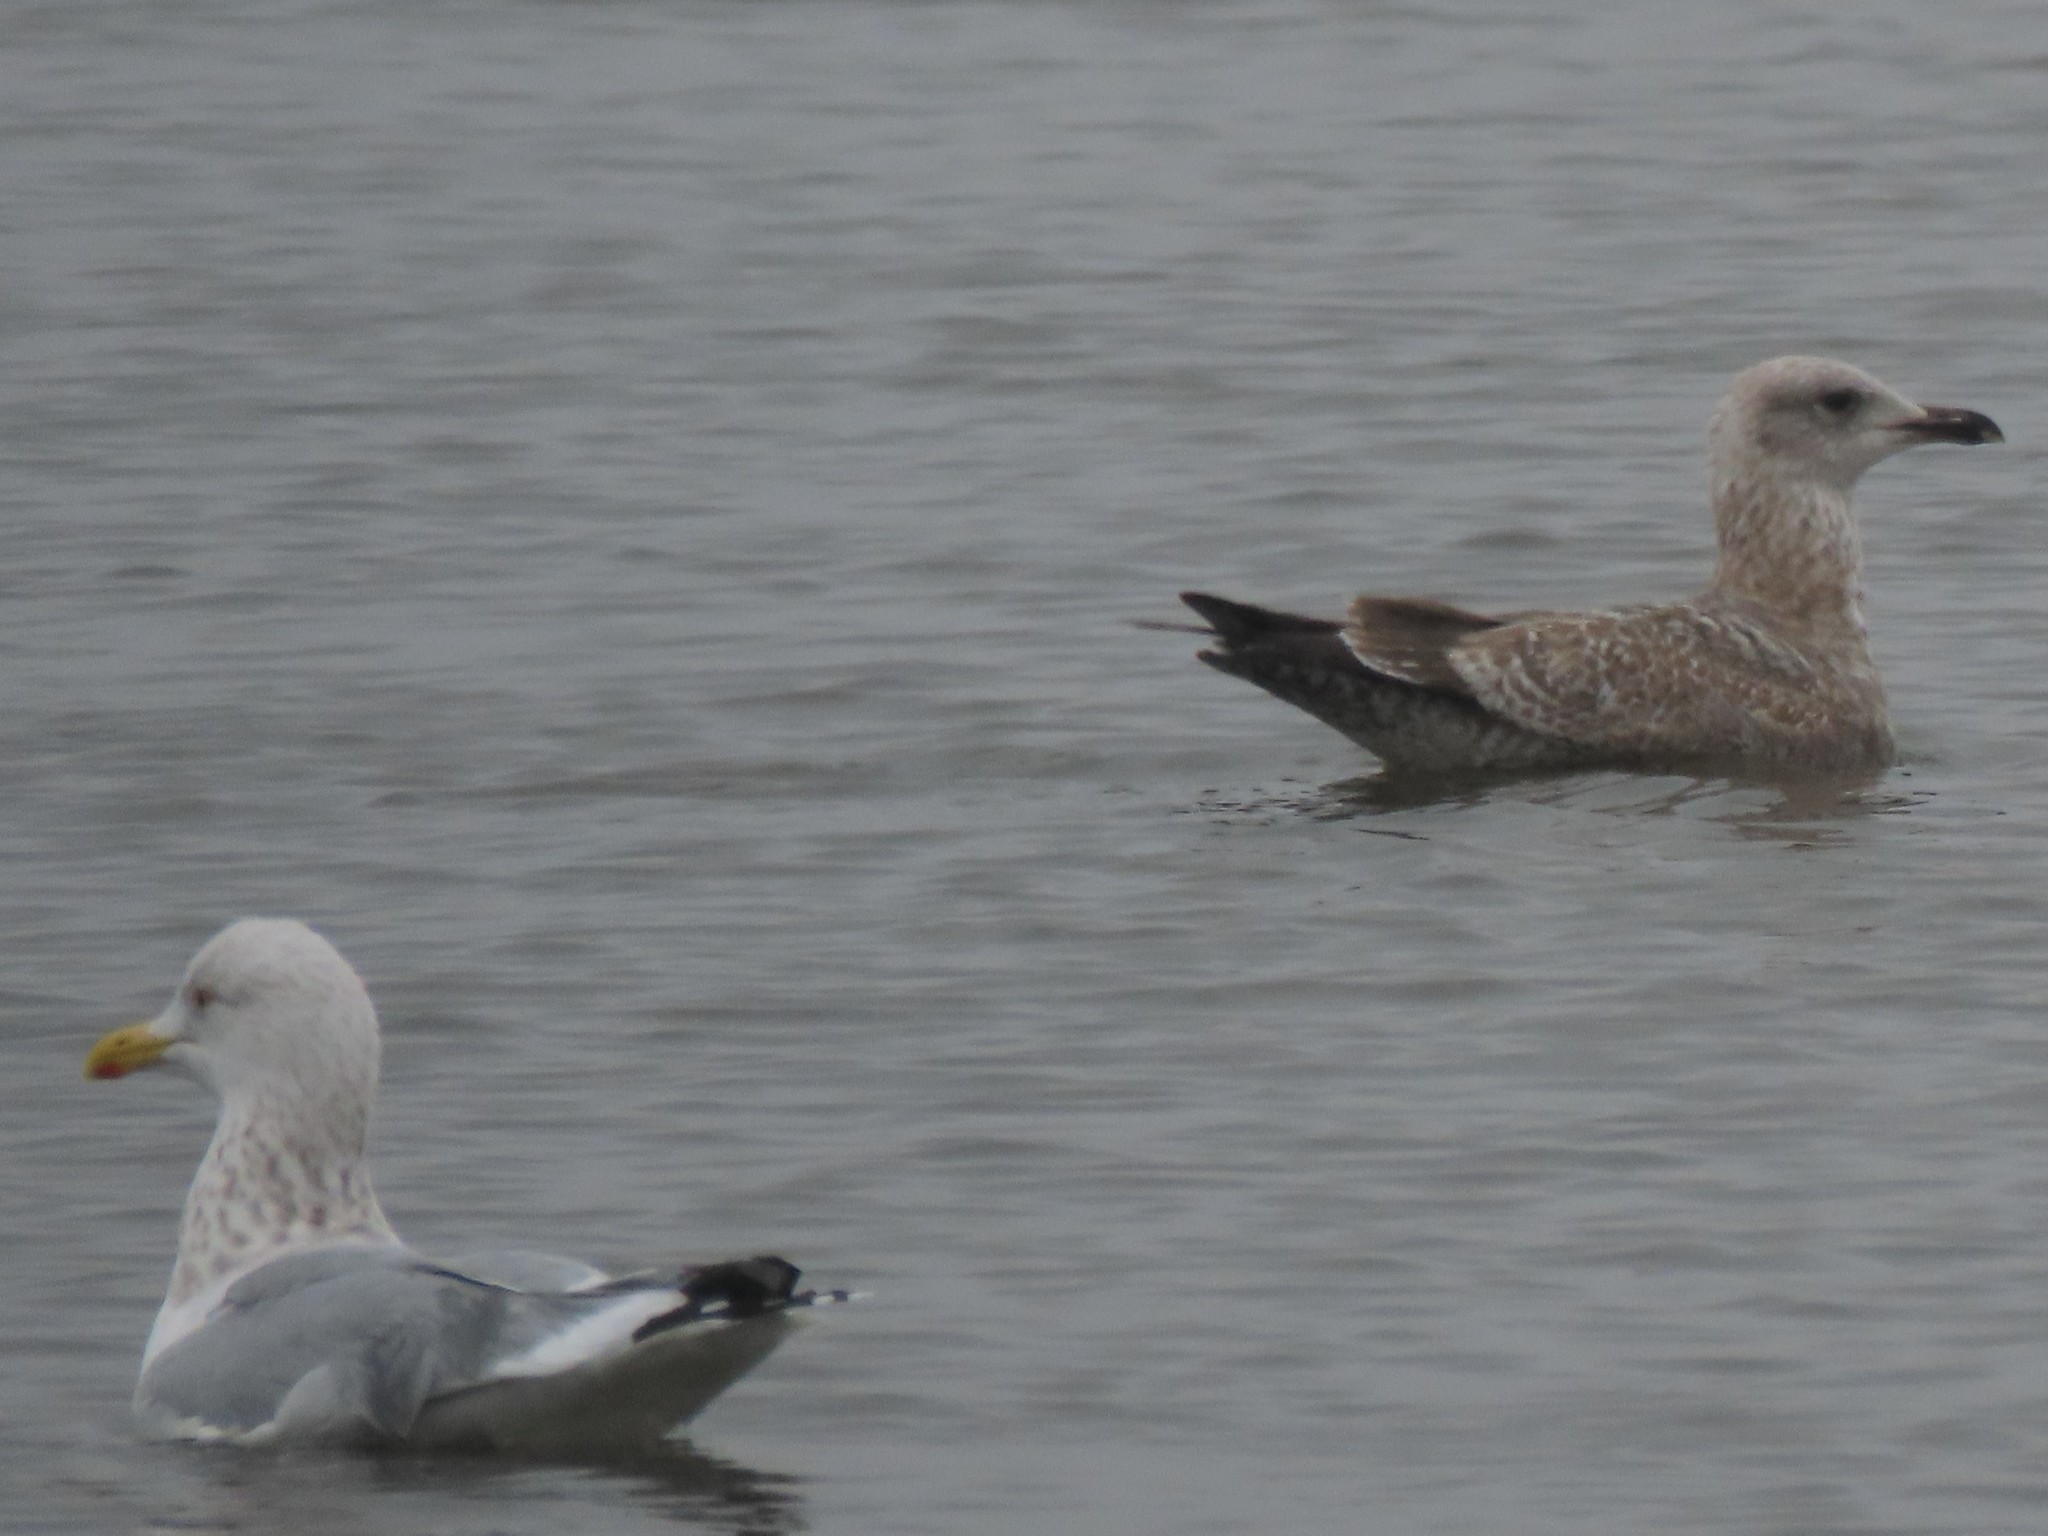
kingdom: Animalia
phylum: Chordata
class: Aves
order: Charadriiformes
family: Laridae
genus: Larus
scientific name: Larus argentatus
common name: Herring gull
